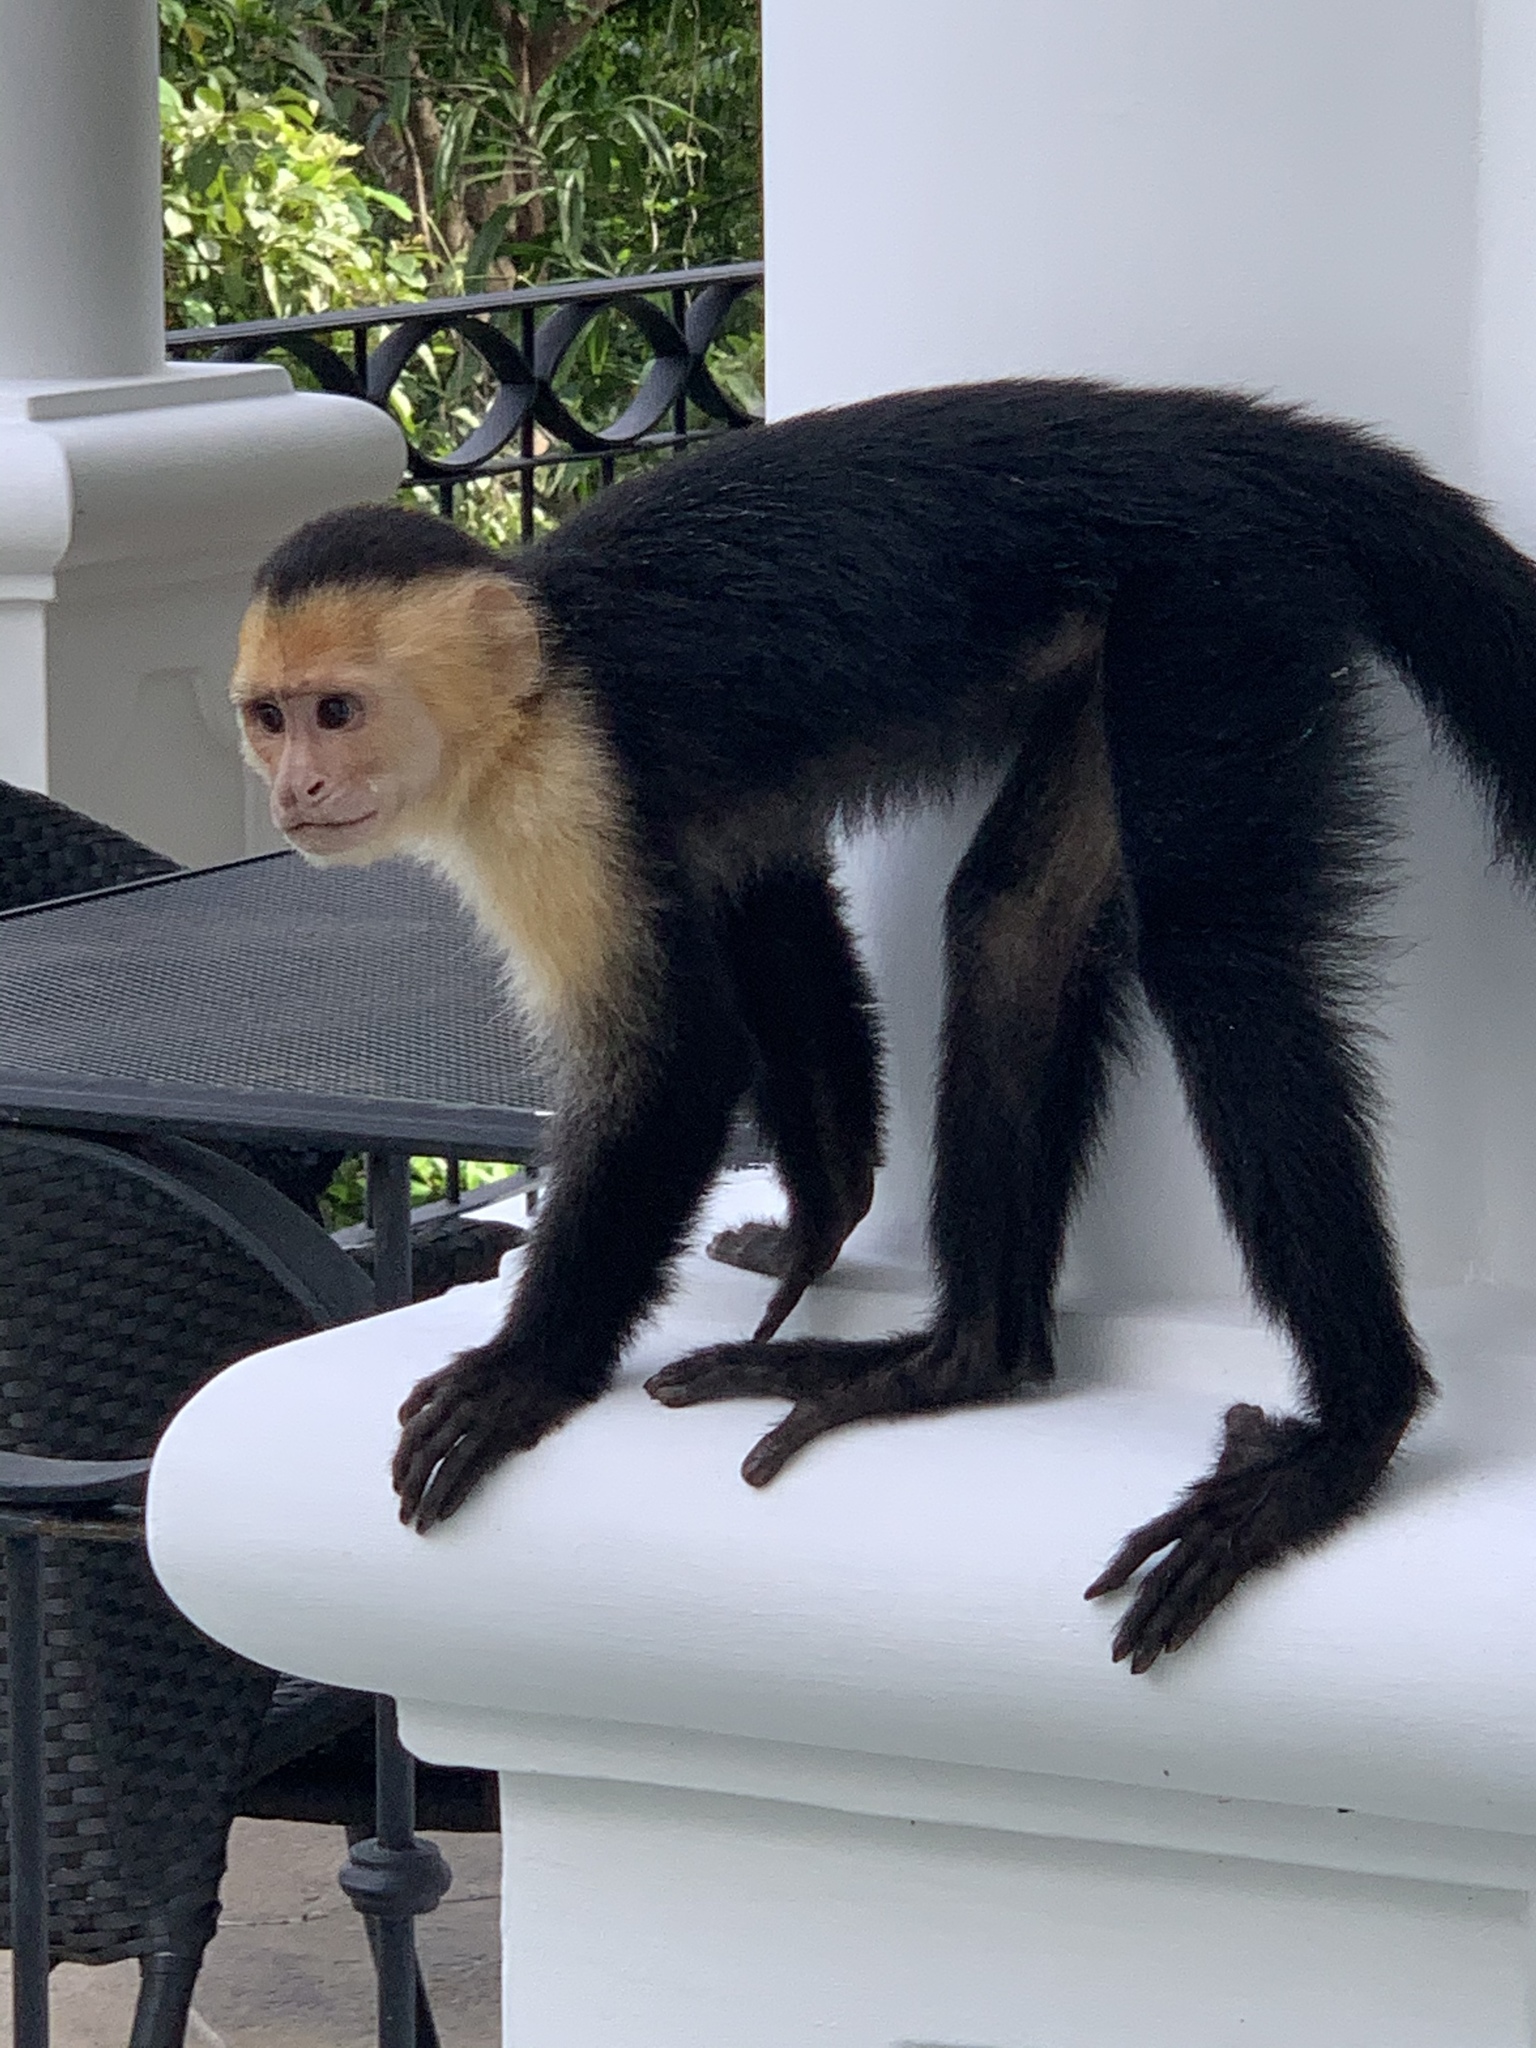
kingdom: Animalia
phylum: Chordata
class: Mammalia
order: Primates
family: Cebidae
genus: Cebus
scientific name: Cebus imitator
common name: Panamanian white-faced capuchin
